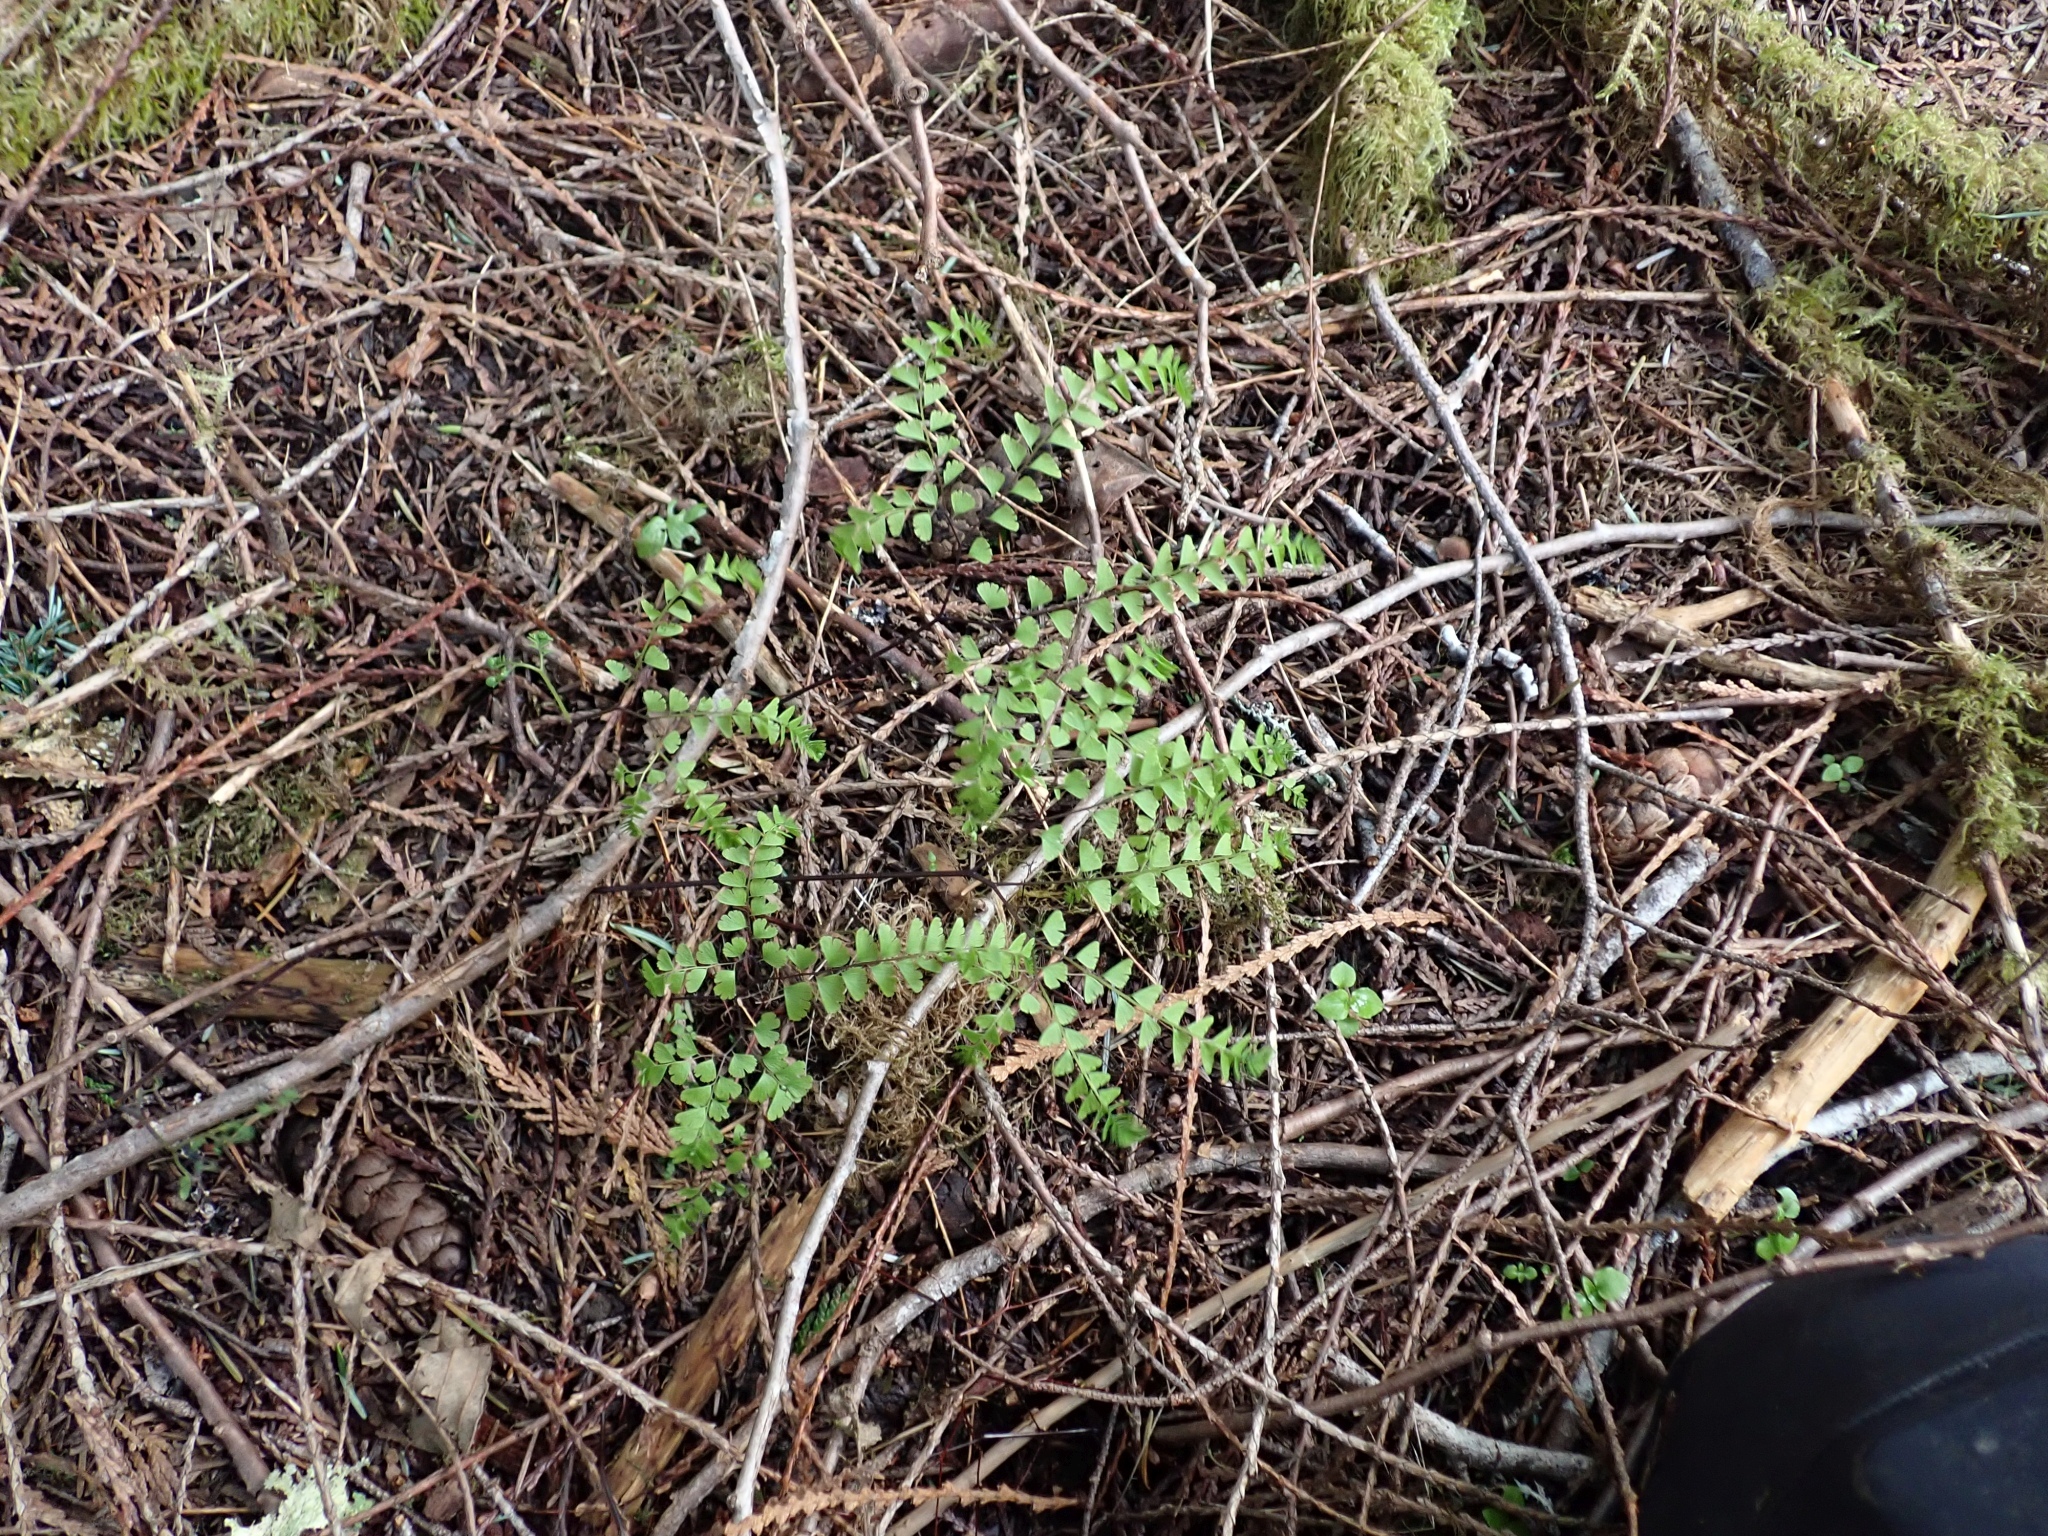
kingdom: Plantae
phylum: Tracheophyta
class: Polypodiopsida
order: Polypodiales
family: Pteridaceae
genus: Adiantum
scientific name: Adiantum aleuticum
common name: Aleutian maidenhair fern
